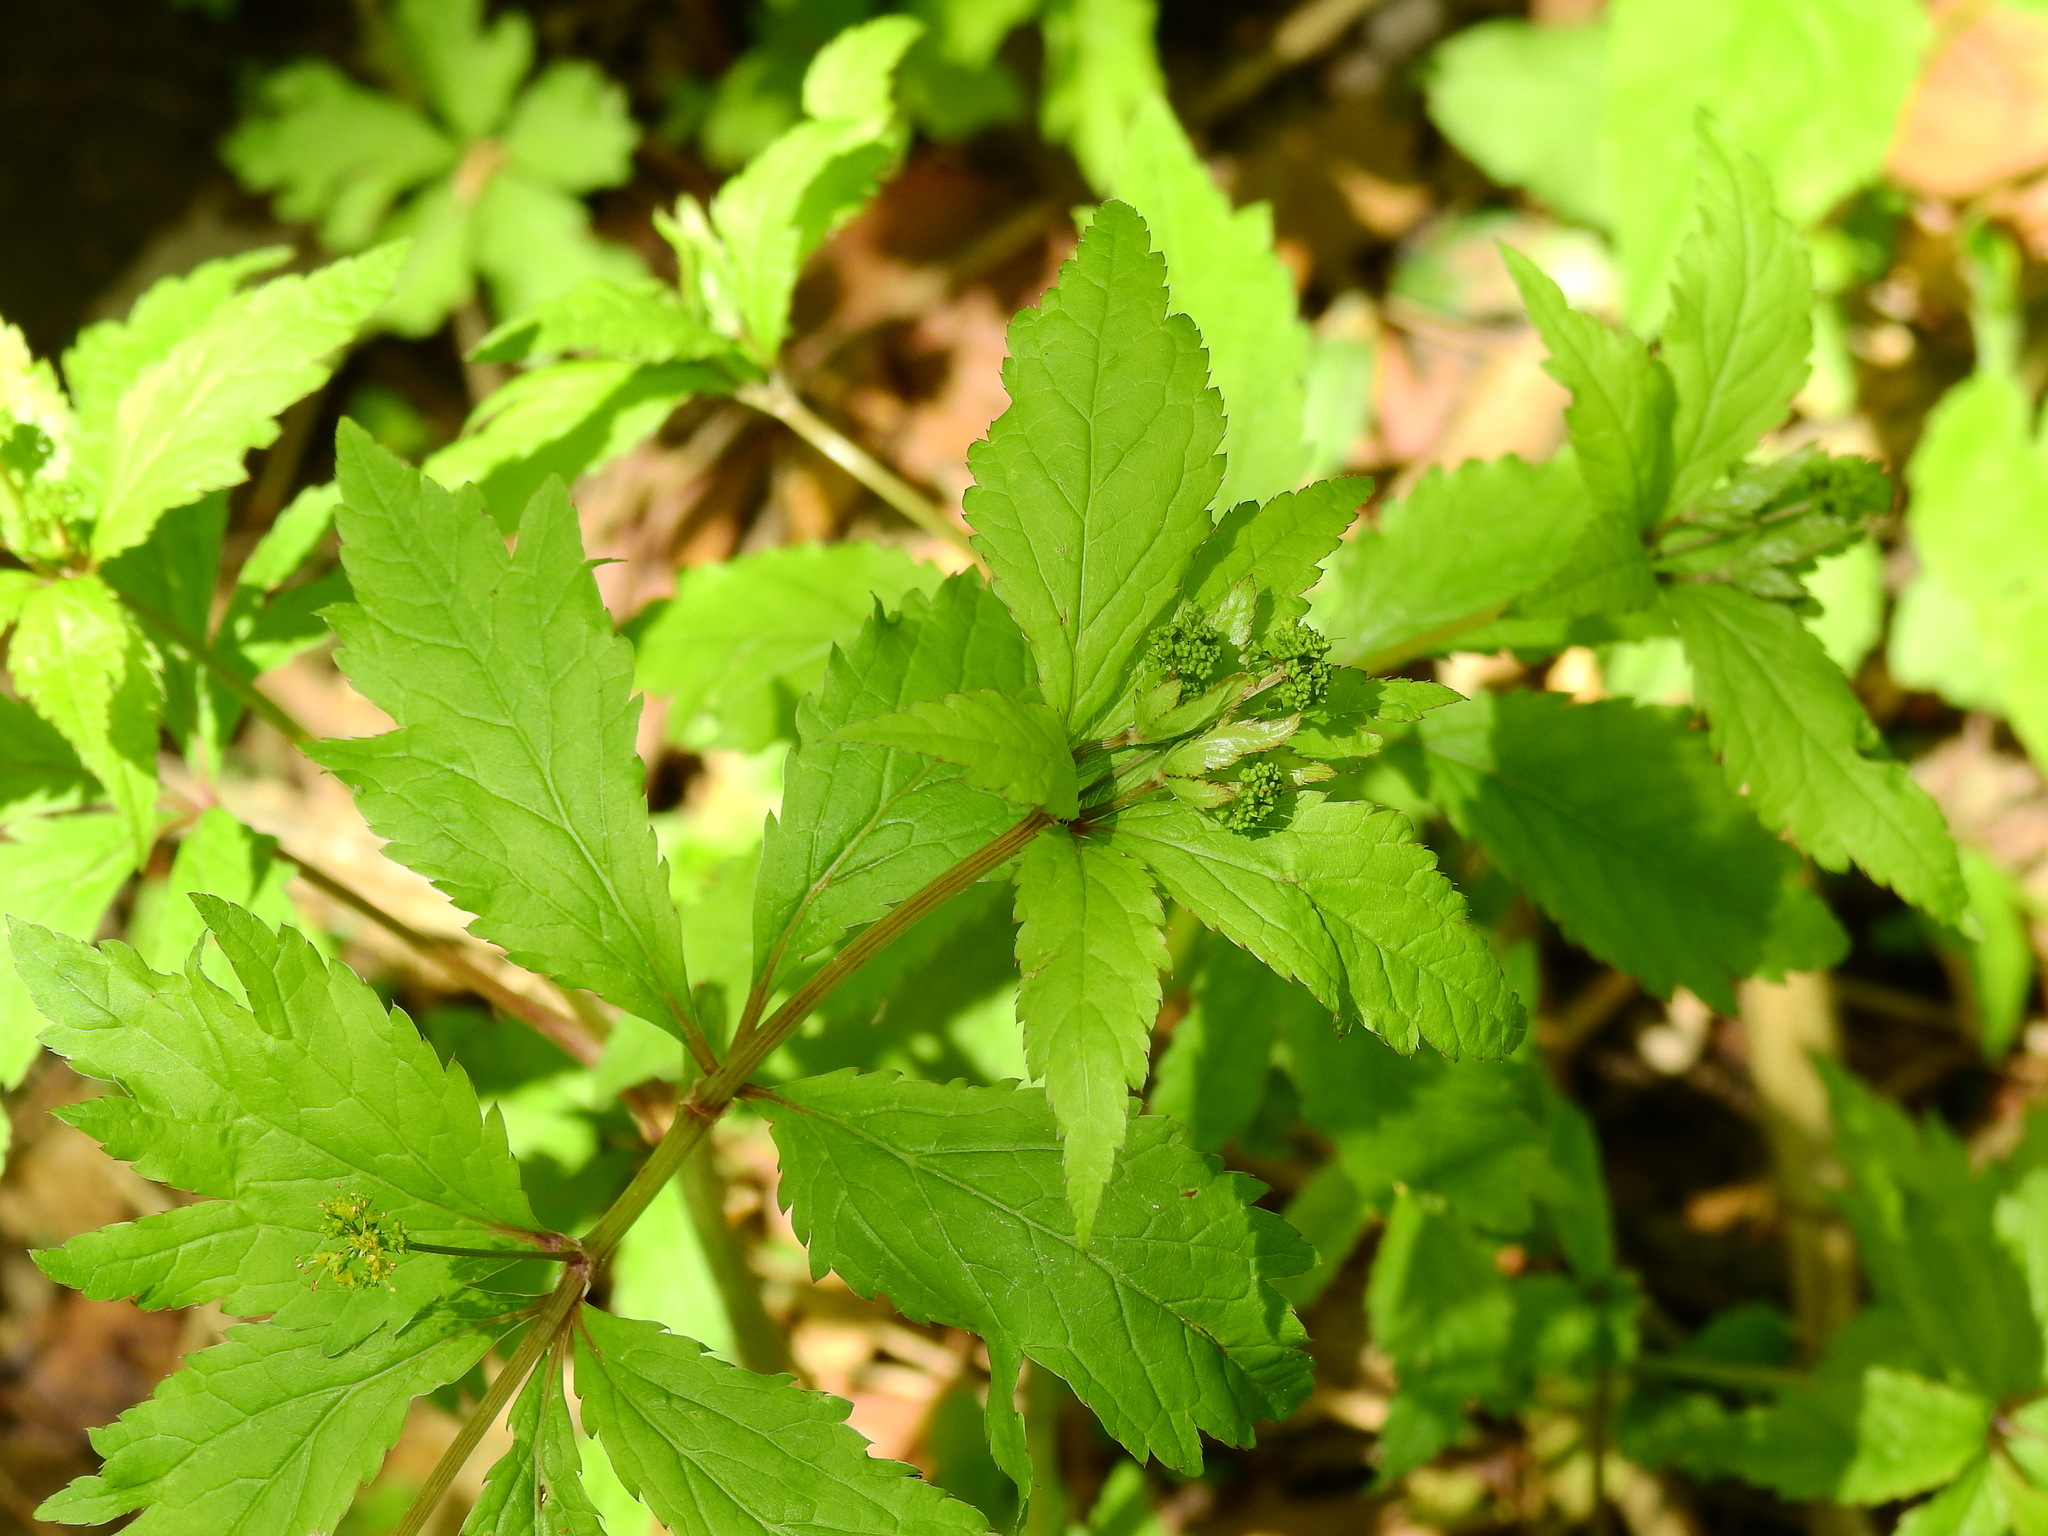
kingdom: Plantae
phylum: Tracheophyta
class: Magnoliopsida
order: Apiales
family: Apiaceae
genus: Sanicula
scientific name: Sanicula odorata
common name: Cluster sanicle
